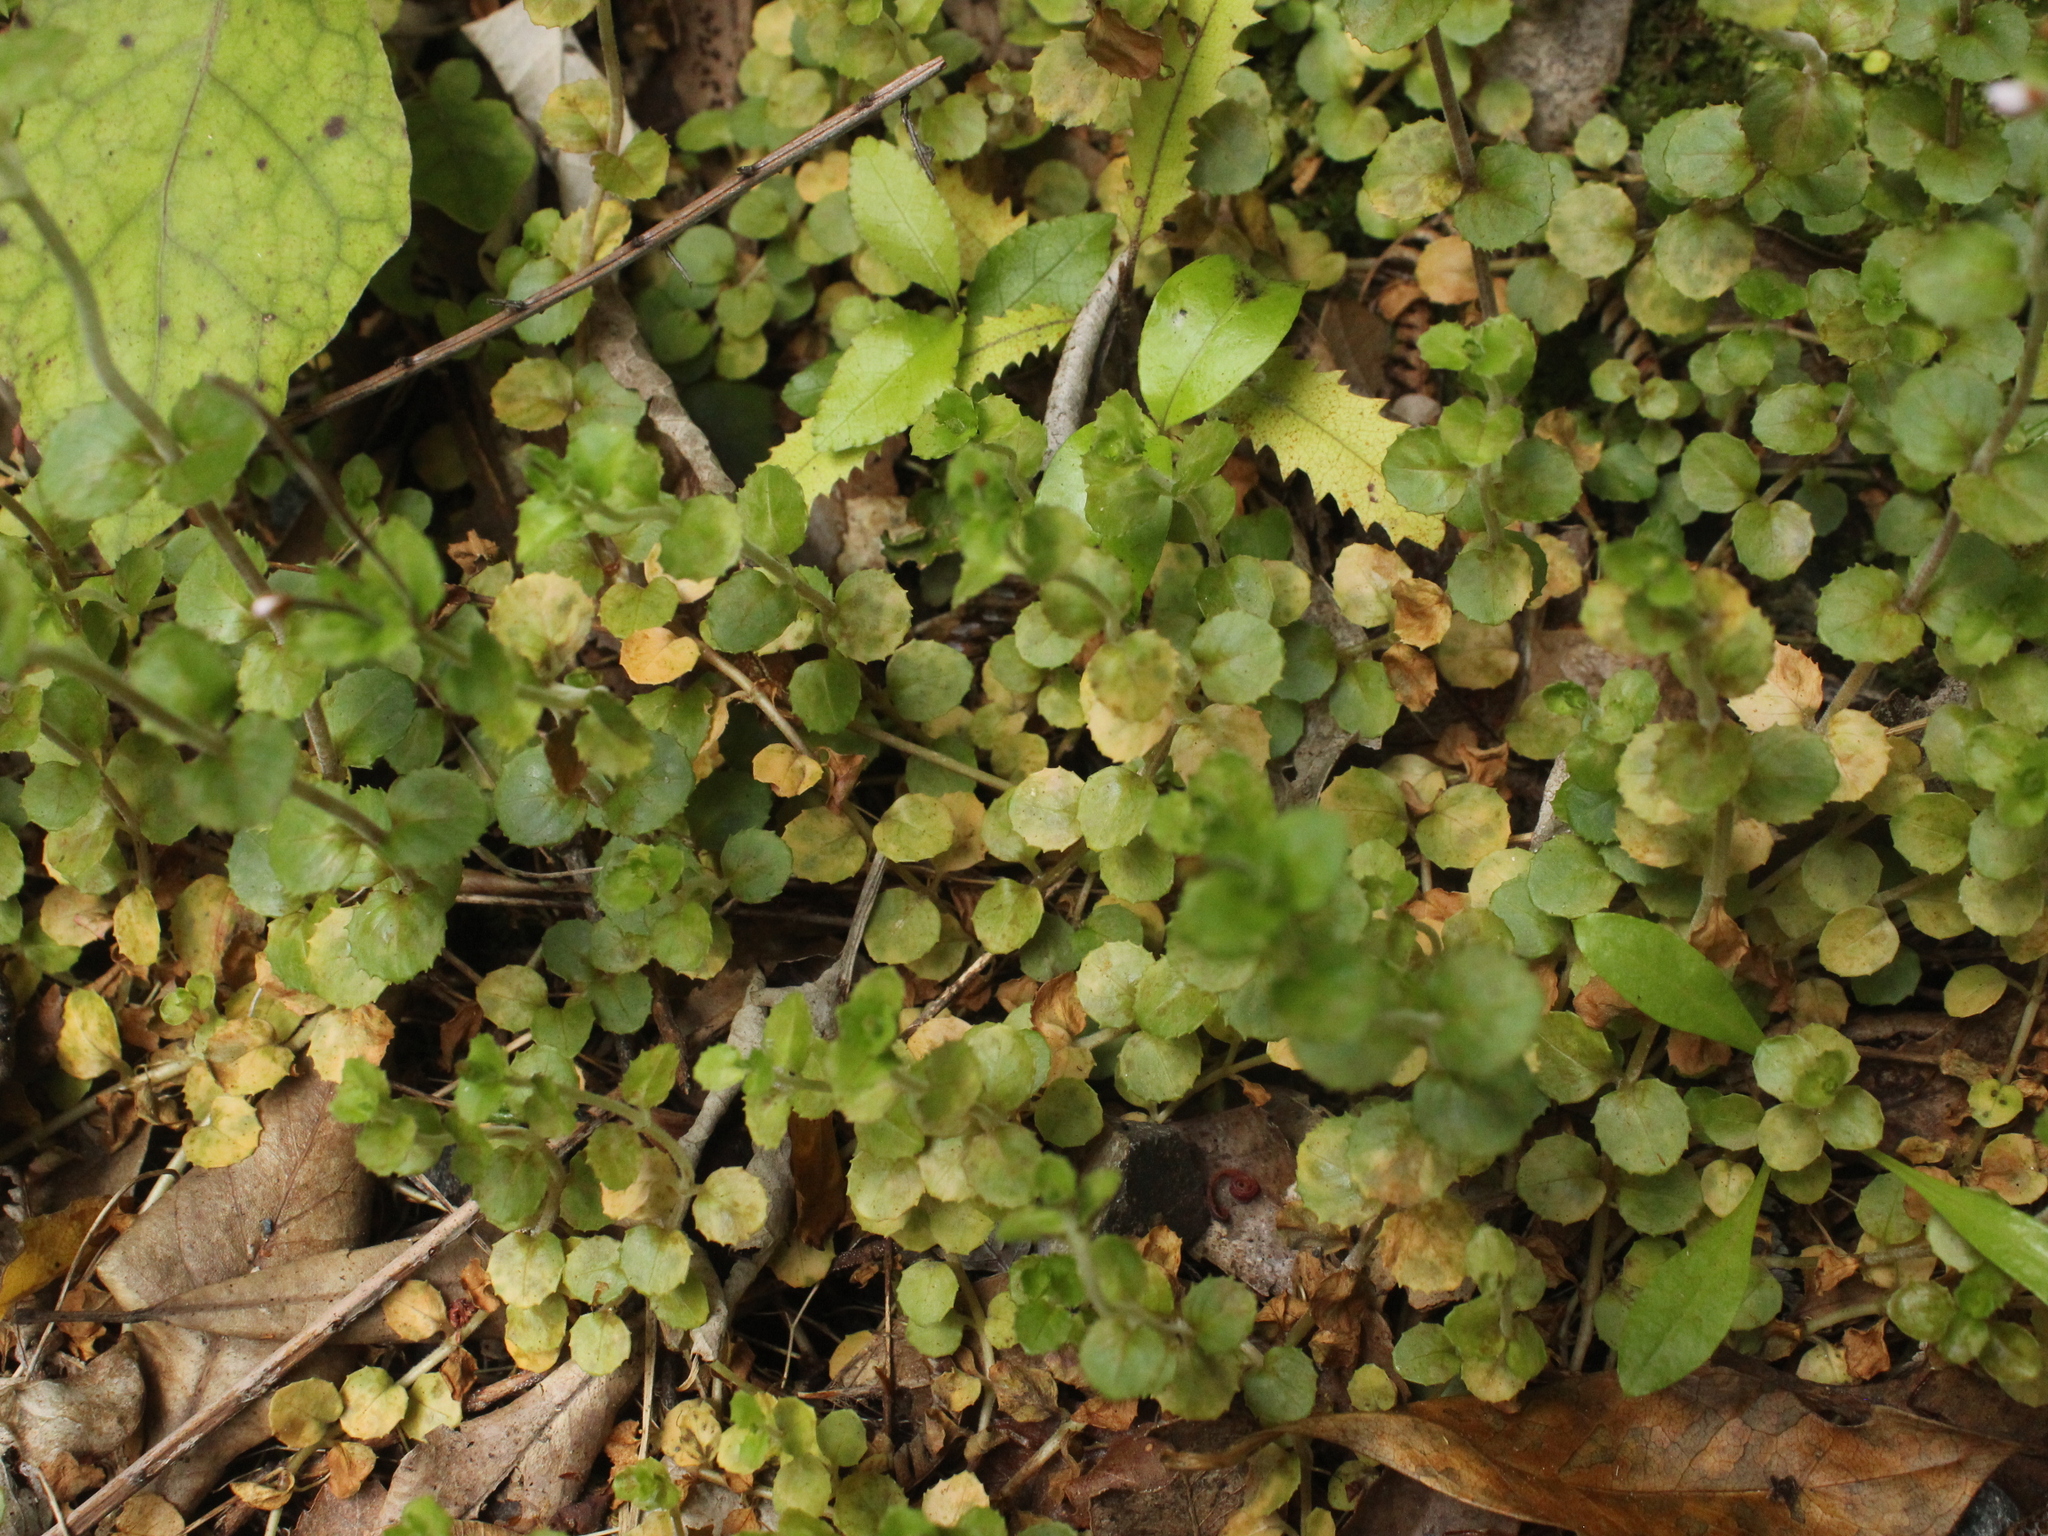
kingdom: Plantae
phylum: Tracheophyta
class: Magnoliopsida
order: Myrtales
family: Onagraceae
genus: Epilobium
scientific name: Epilobium rotundifolium
